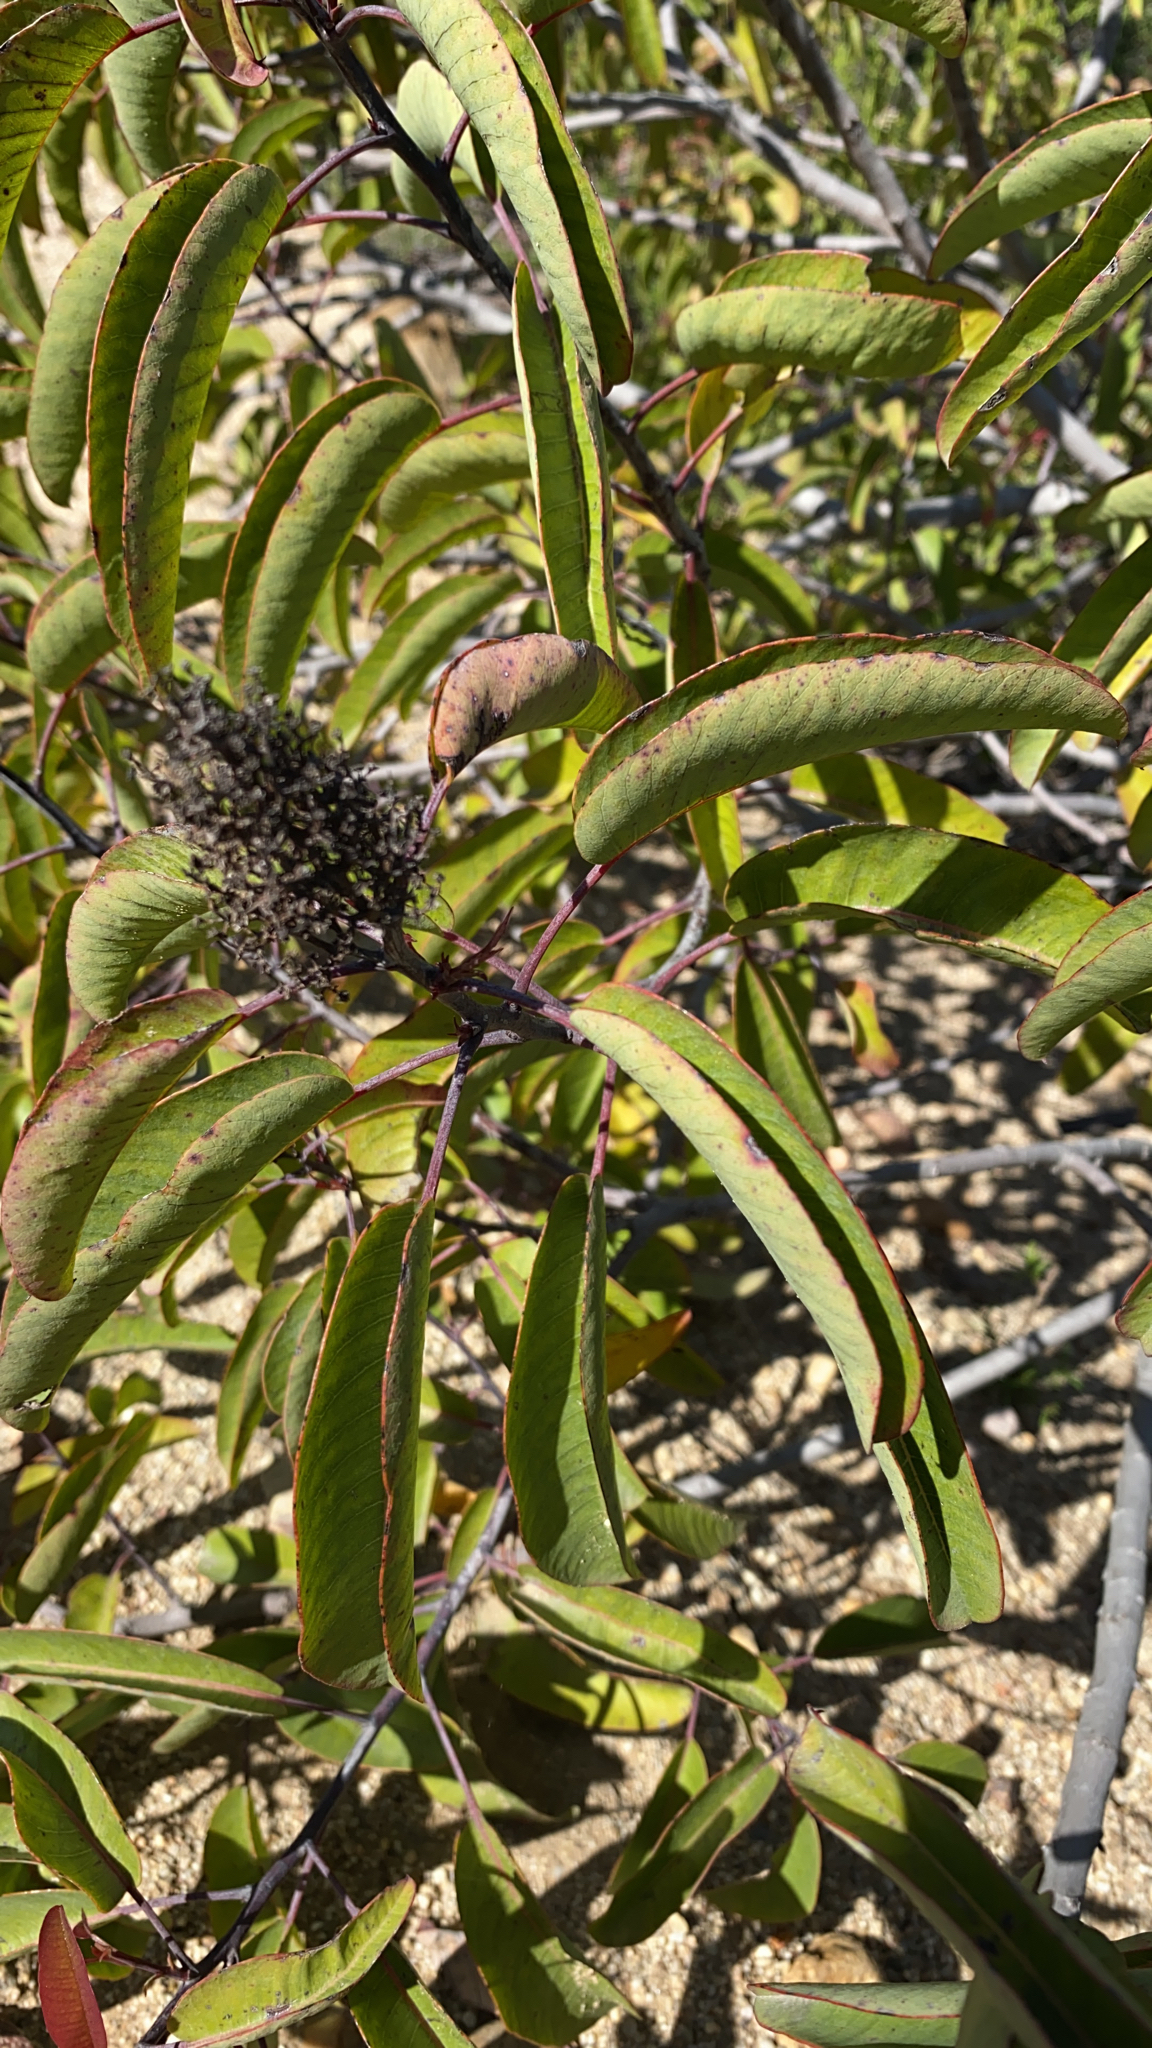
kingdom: Plantae
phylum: Tracheophyta
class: Magnoliopsida
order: Sapindales
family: Anacardiaceae
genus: Malosma
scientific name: Malosma laurina
